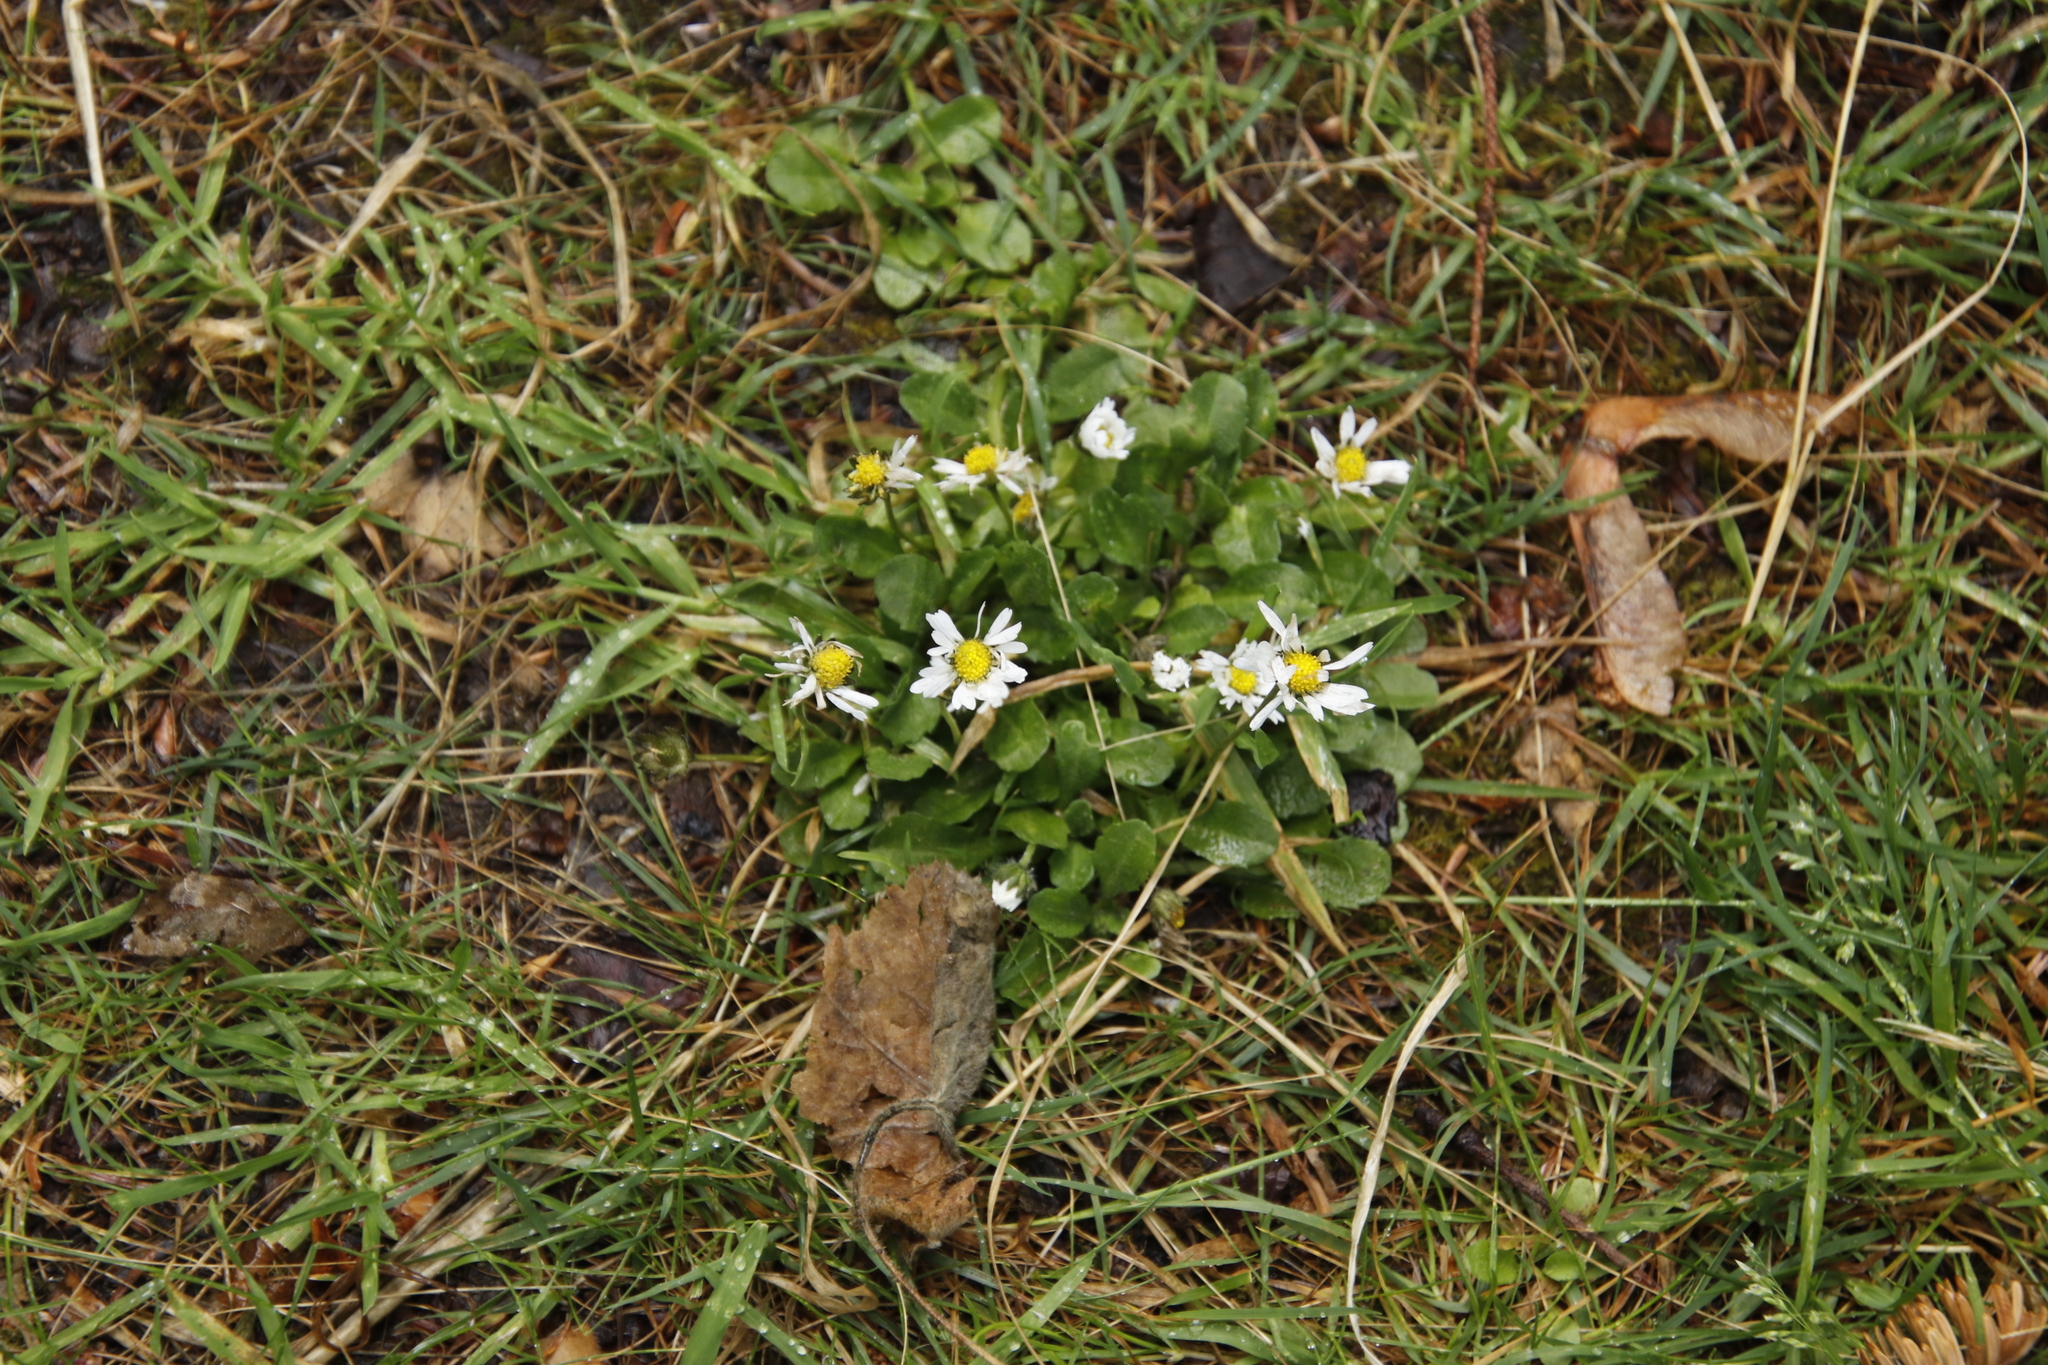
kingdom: Plantae
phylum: Tracheophyta
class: Magnoliopsida
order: Asterales
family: Asteraceae
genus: Bellis
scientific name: Bellis perennis
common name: Lawndaisy
